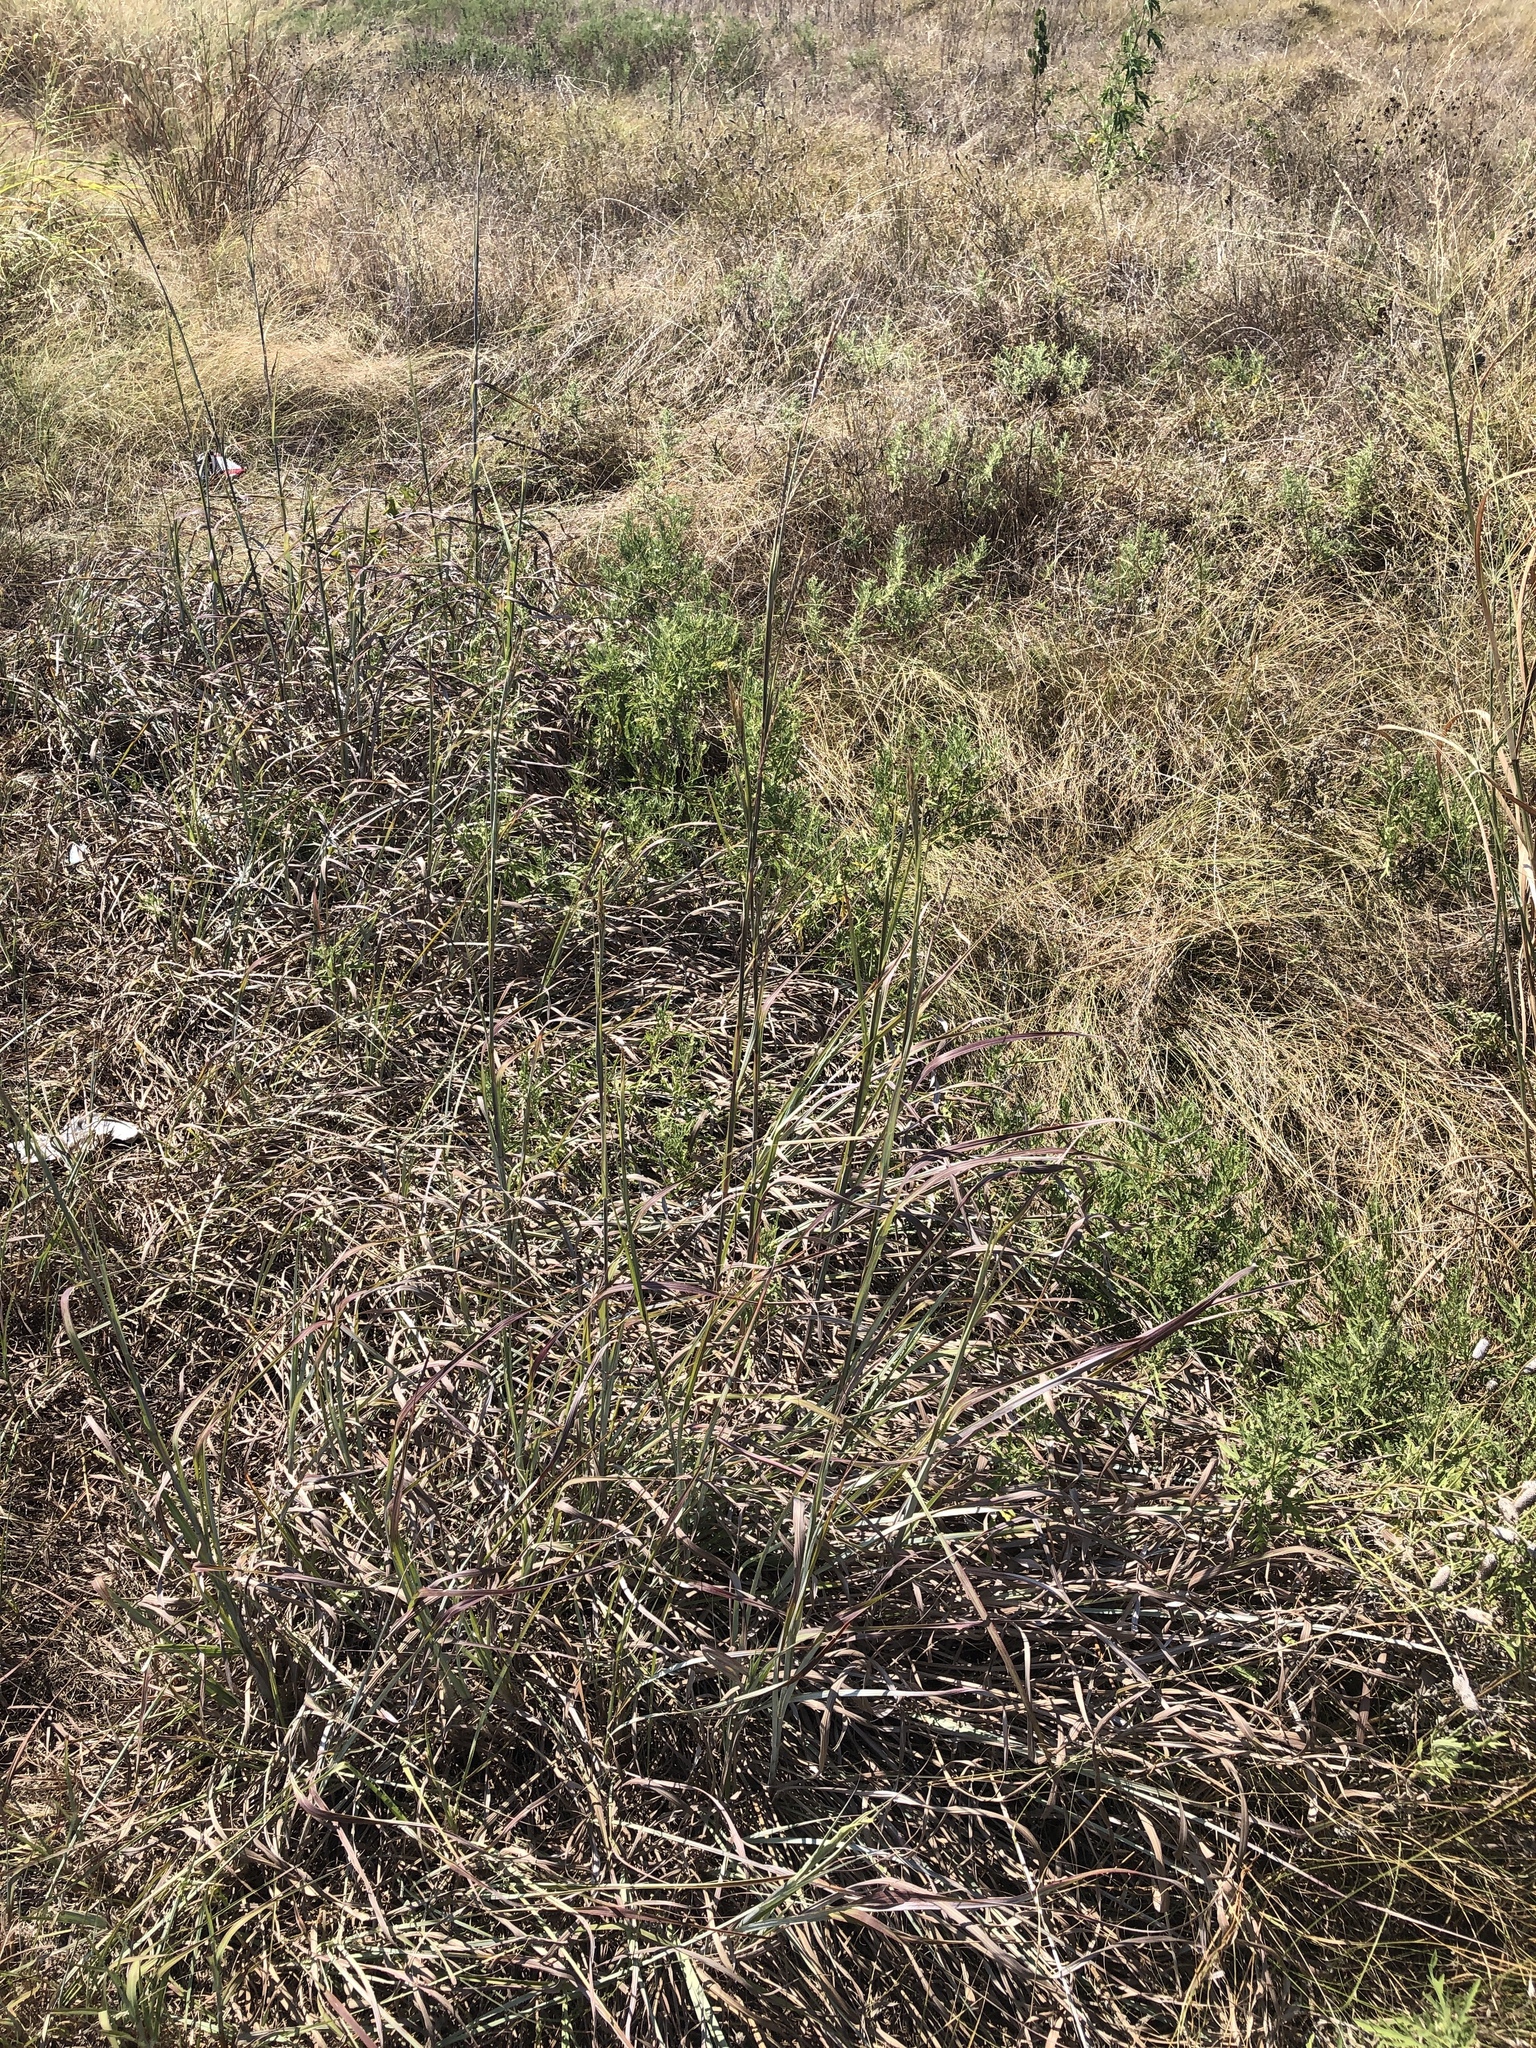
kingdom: Plantae
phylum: Tracheophyta
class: Liliopsida
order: Poales
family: Poaceae
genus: Andropogon
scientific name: Andropogon gerardi
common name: Big bluestem
